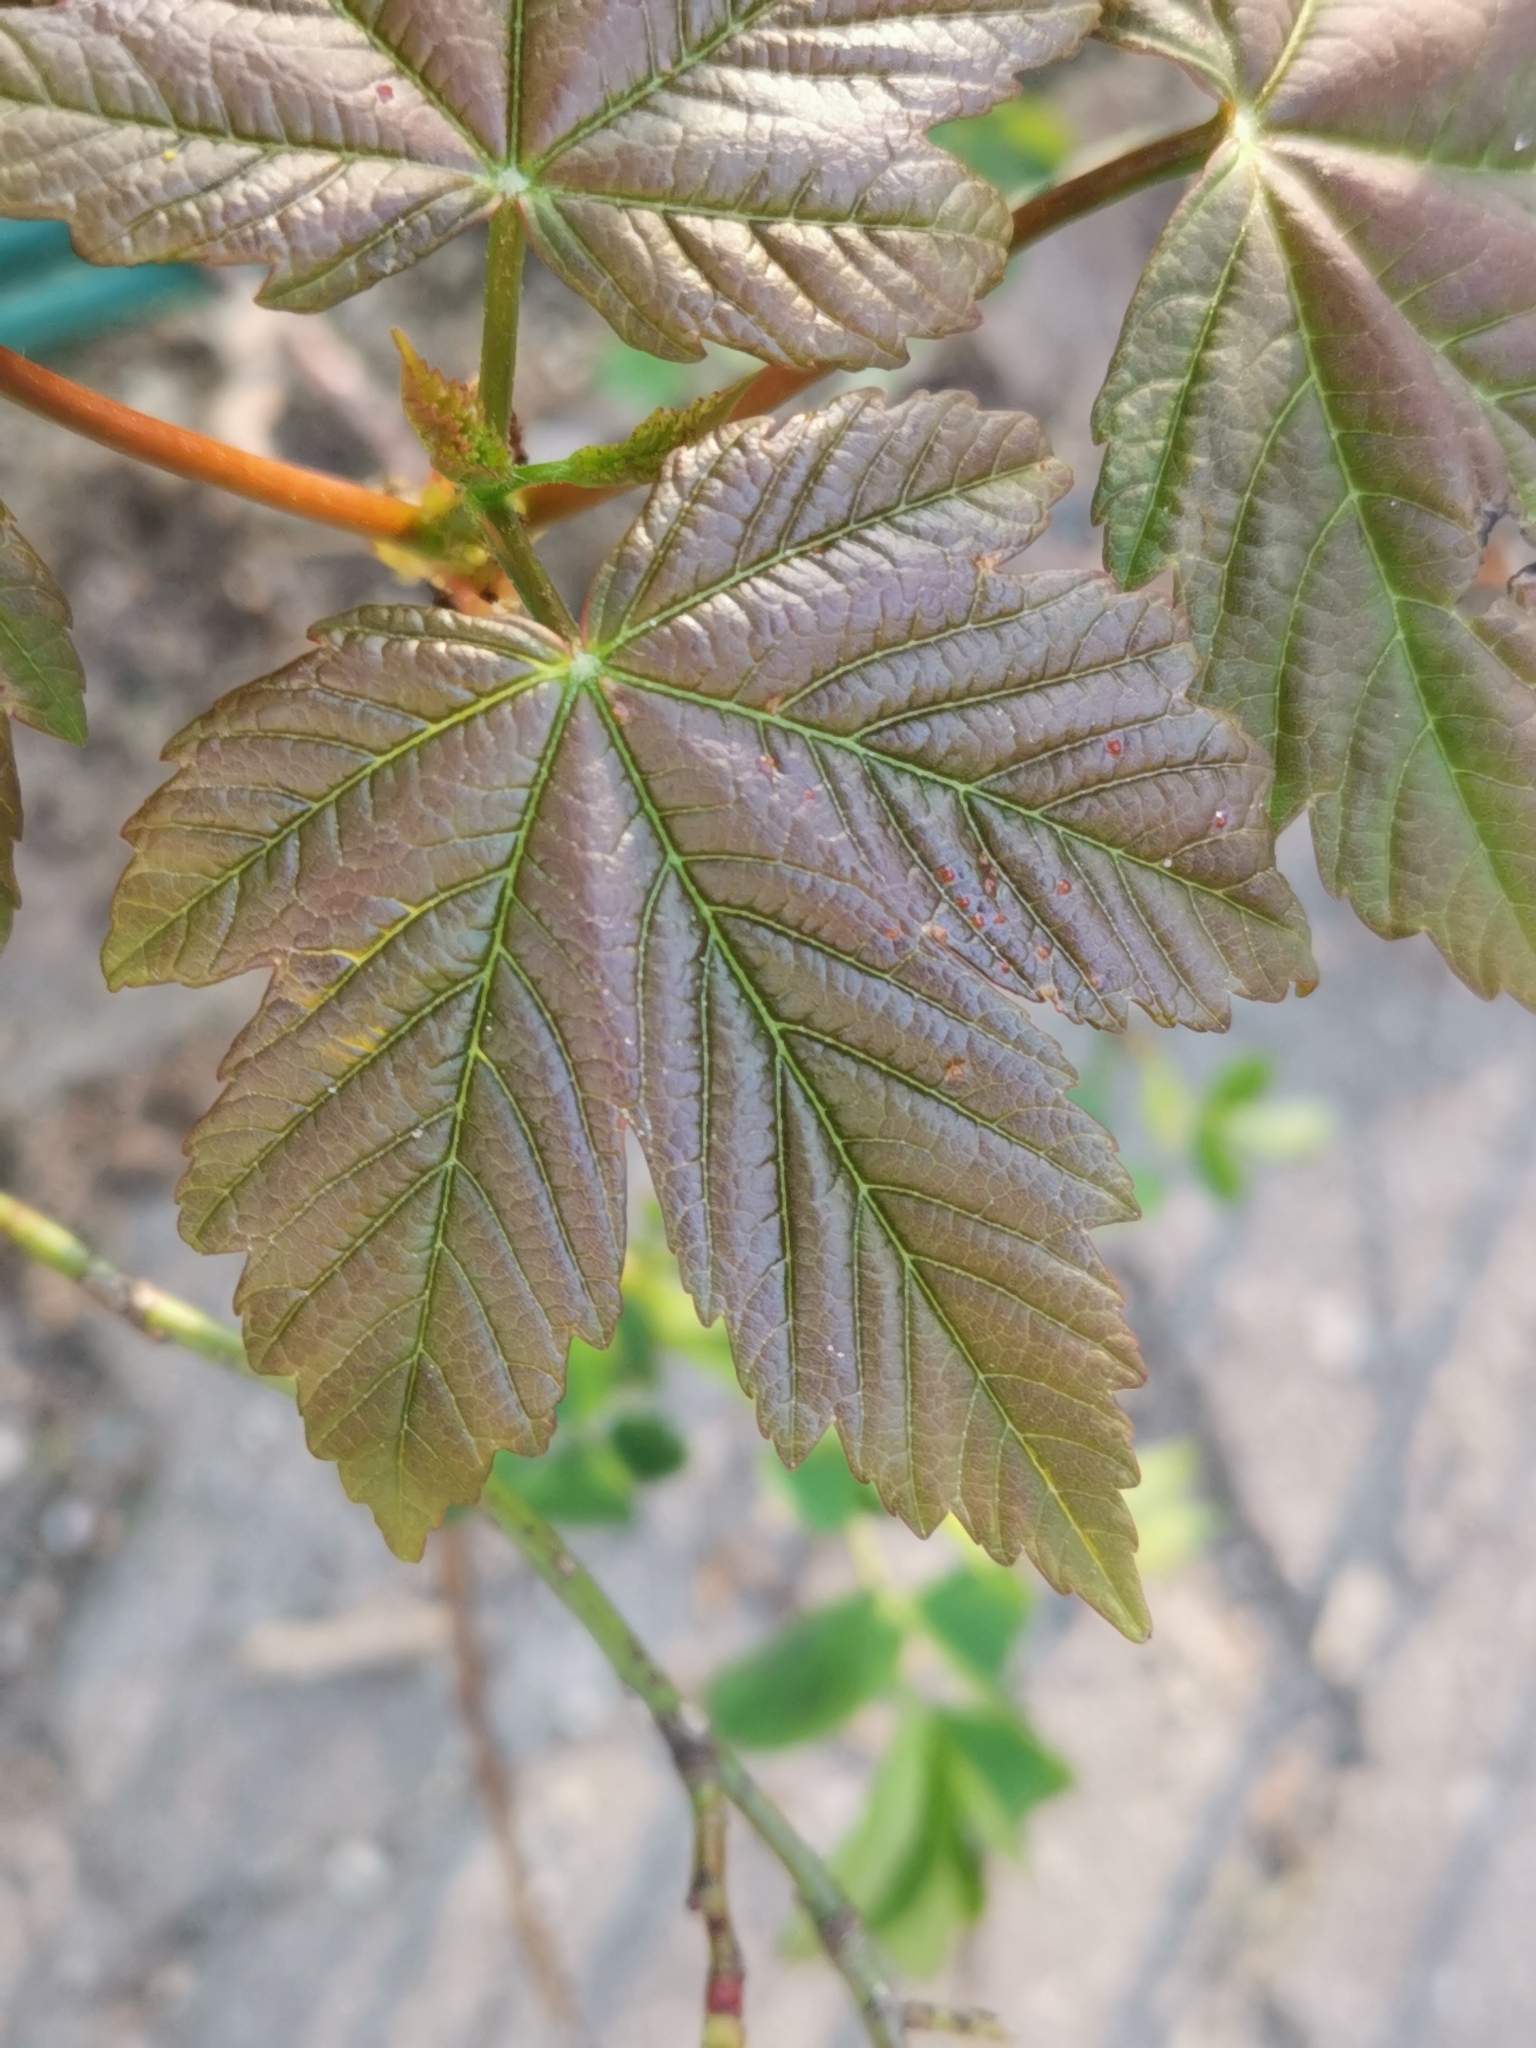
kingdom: Plantae
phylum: Tracheophyta
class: Magnoliopsida
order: Sapindales
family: Sapindaceae
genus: Acer
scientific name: Acer pseudoplatanus
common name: Sycamore
